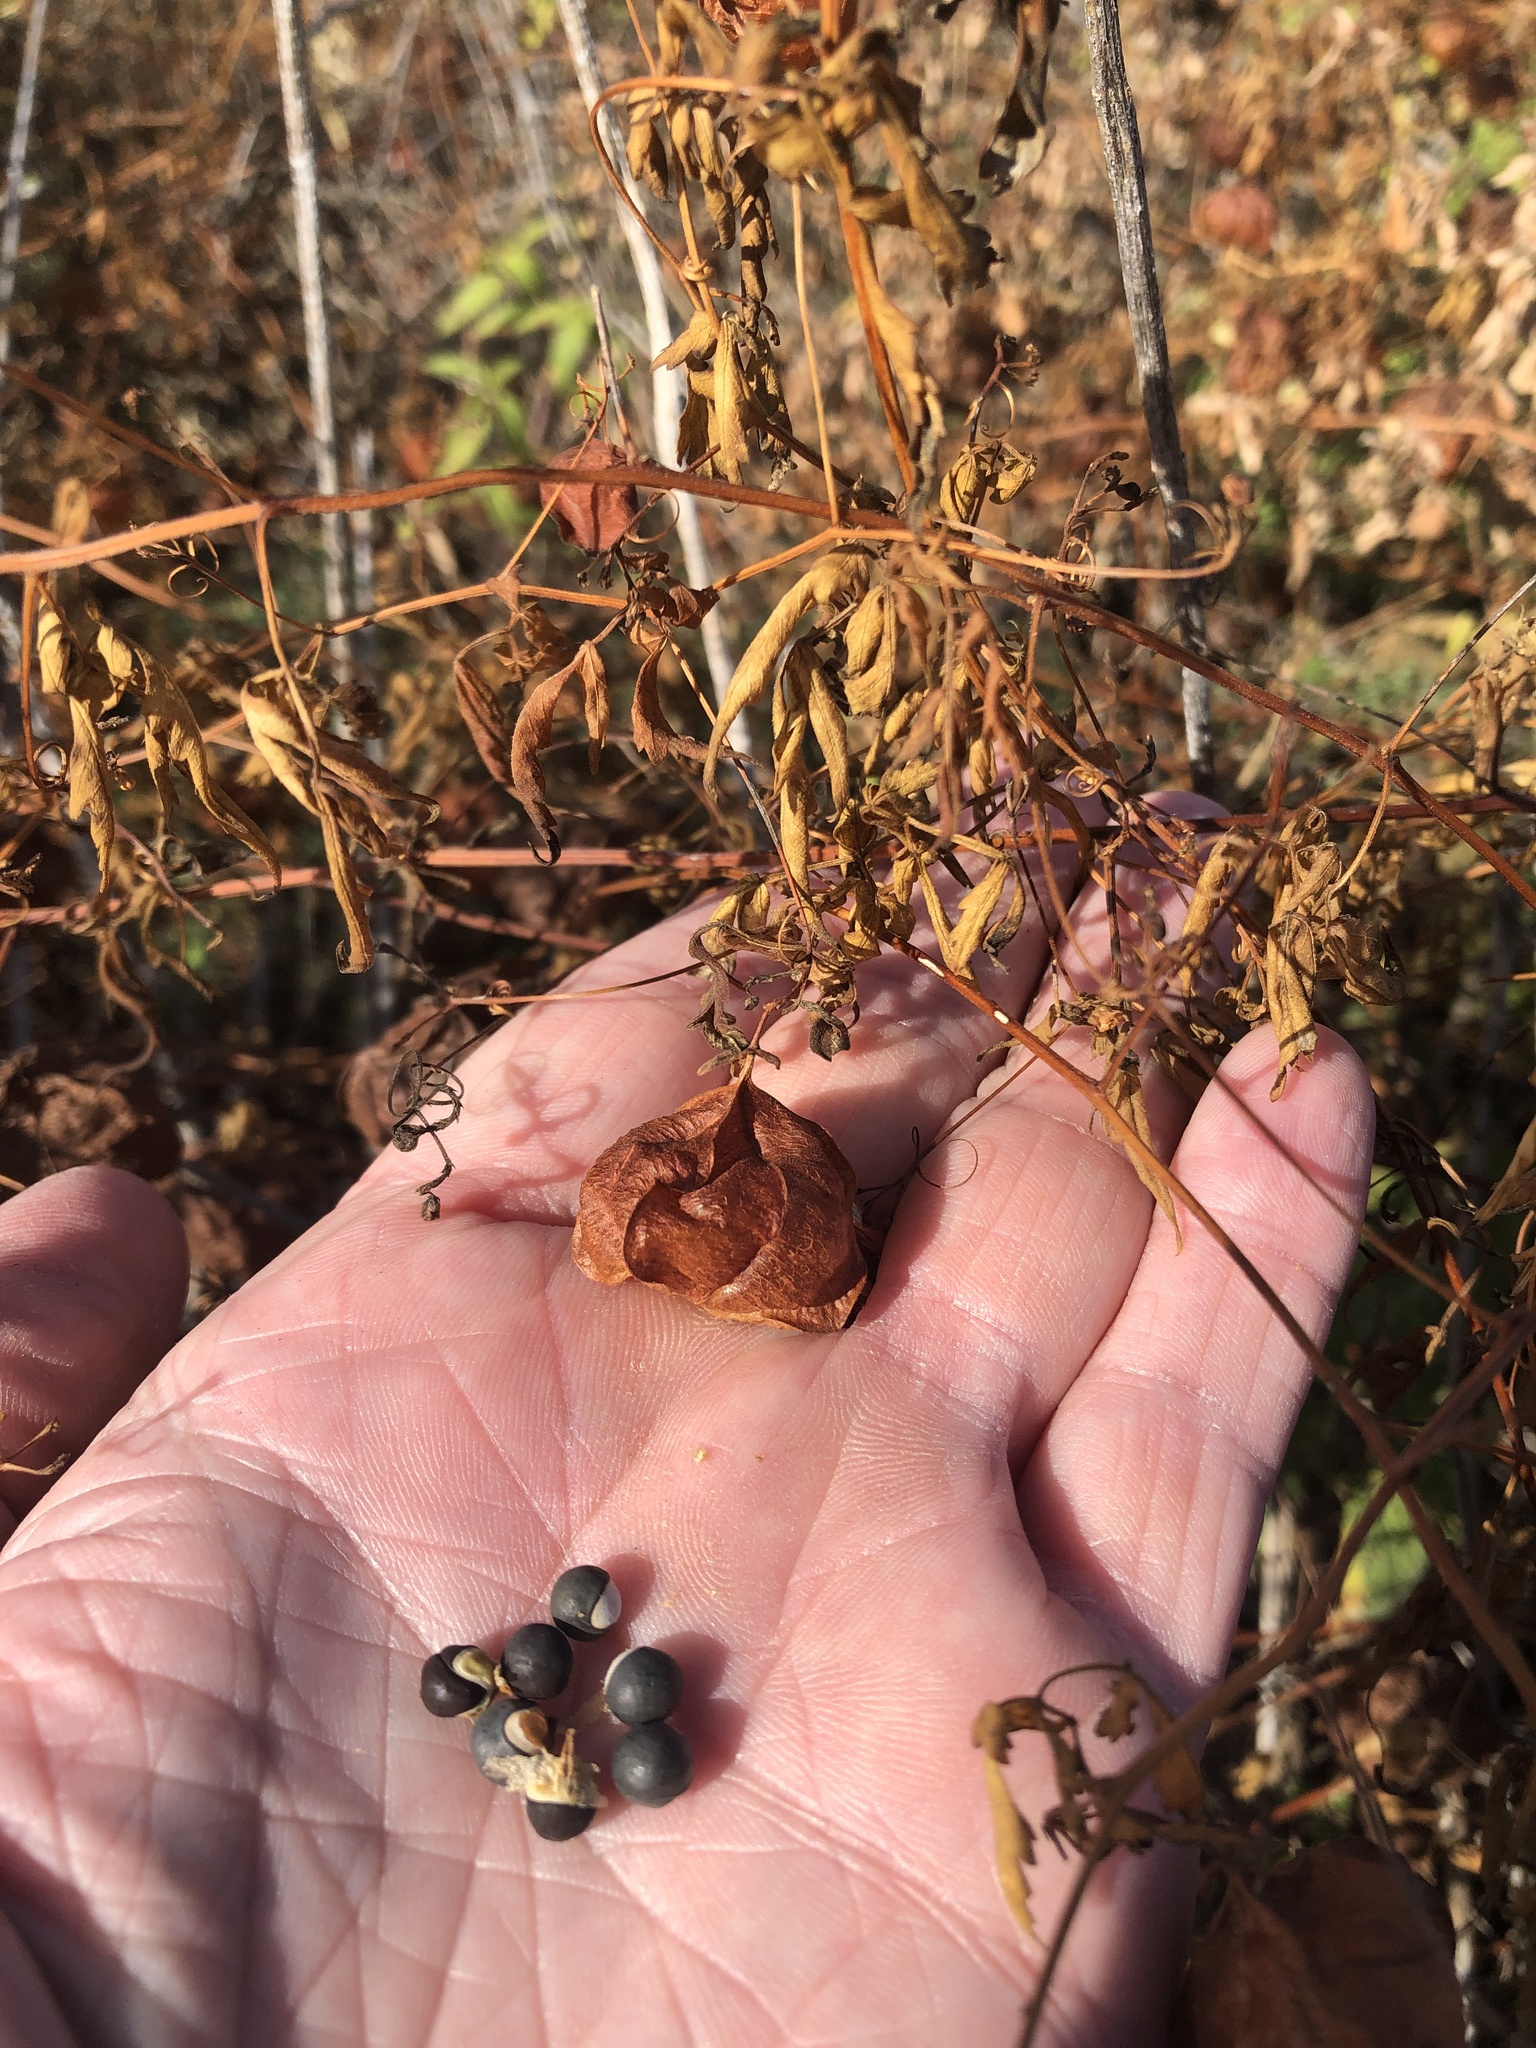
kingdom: Plantae
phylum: Tracheophyta
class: Magnoliopsida
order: Sapindales
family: Sapindaceae
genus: Cardiospermum
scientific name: Cardiospermum halicacabum
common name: Balloon vine
